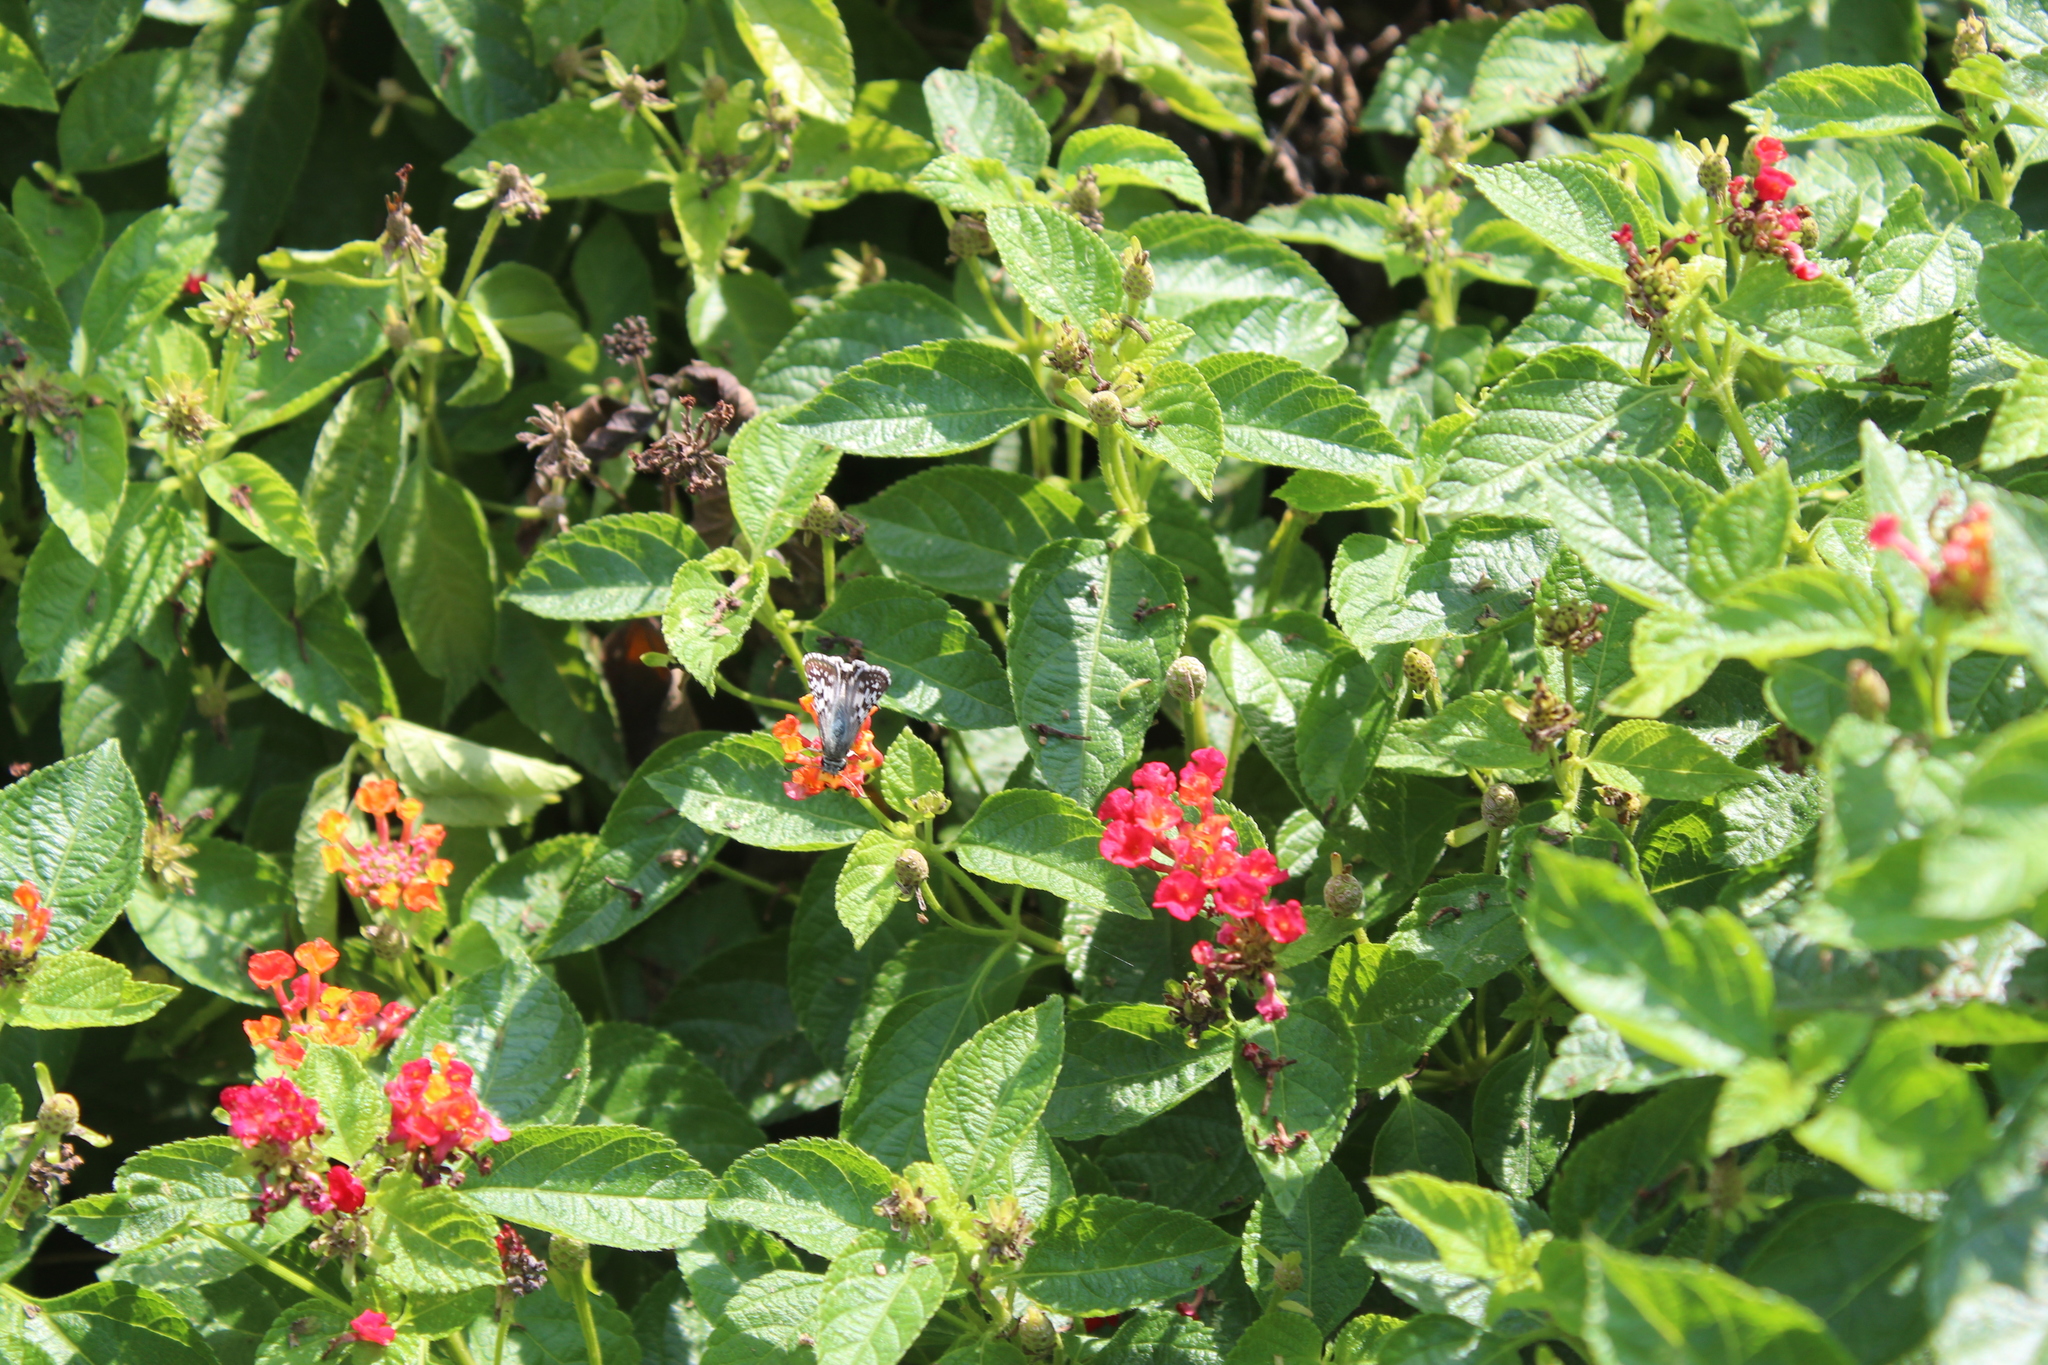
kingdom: Animalia
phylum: Arthropoda
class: Insecta
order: Lepidoptera
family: Hesperiidae
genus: Burnsius
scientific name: Burnsius
